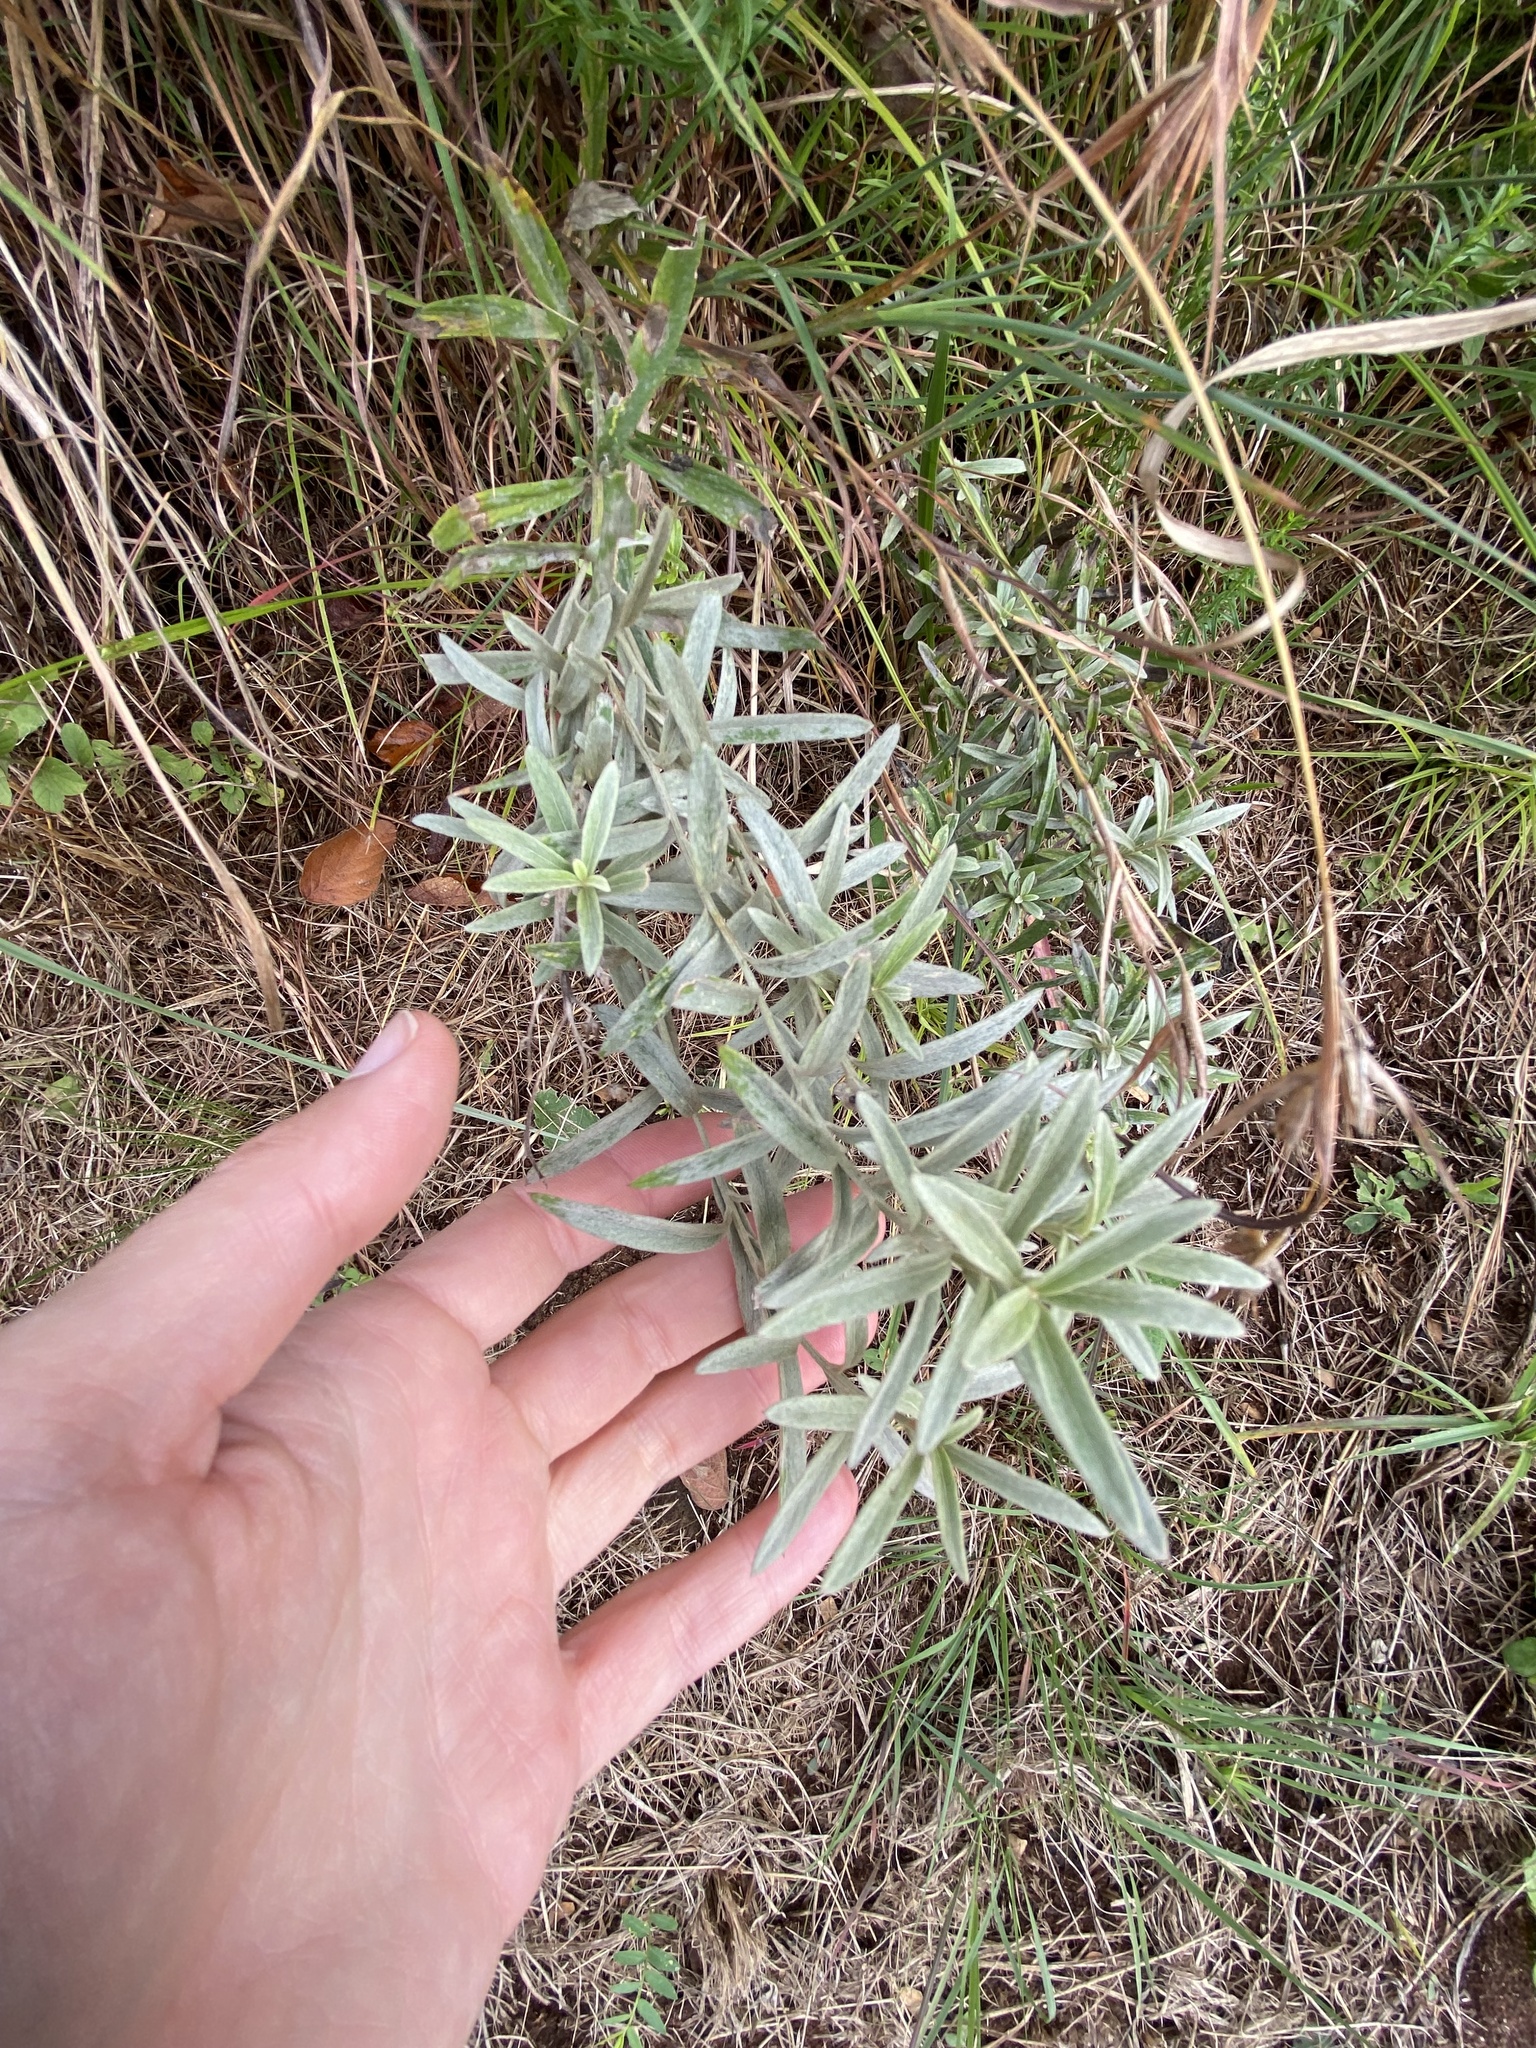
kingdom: Plantae
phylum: Tracheophyta
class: Magnoliopsida
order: Asterales
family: Asteraceae
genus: Hilliardiella
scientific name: Hilliardiella aristata
